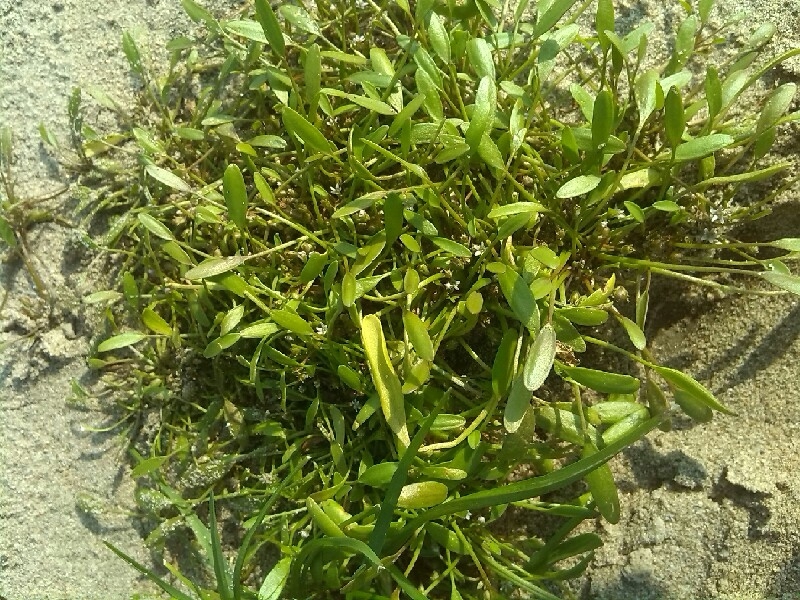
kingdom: Plantae
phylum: Tracheophyta
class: Magnoliopsida
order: Lamiales
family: Scrophulariaceae
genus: Limosella
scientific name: Limosella aquatica
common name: Mudwort
